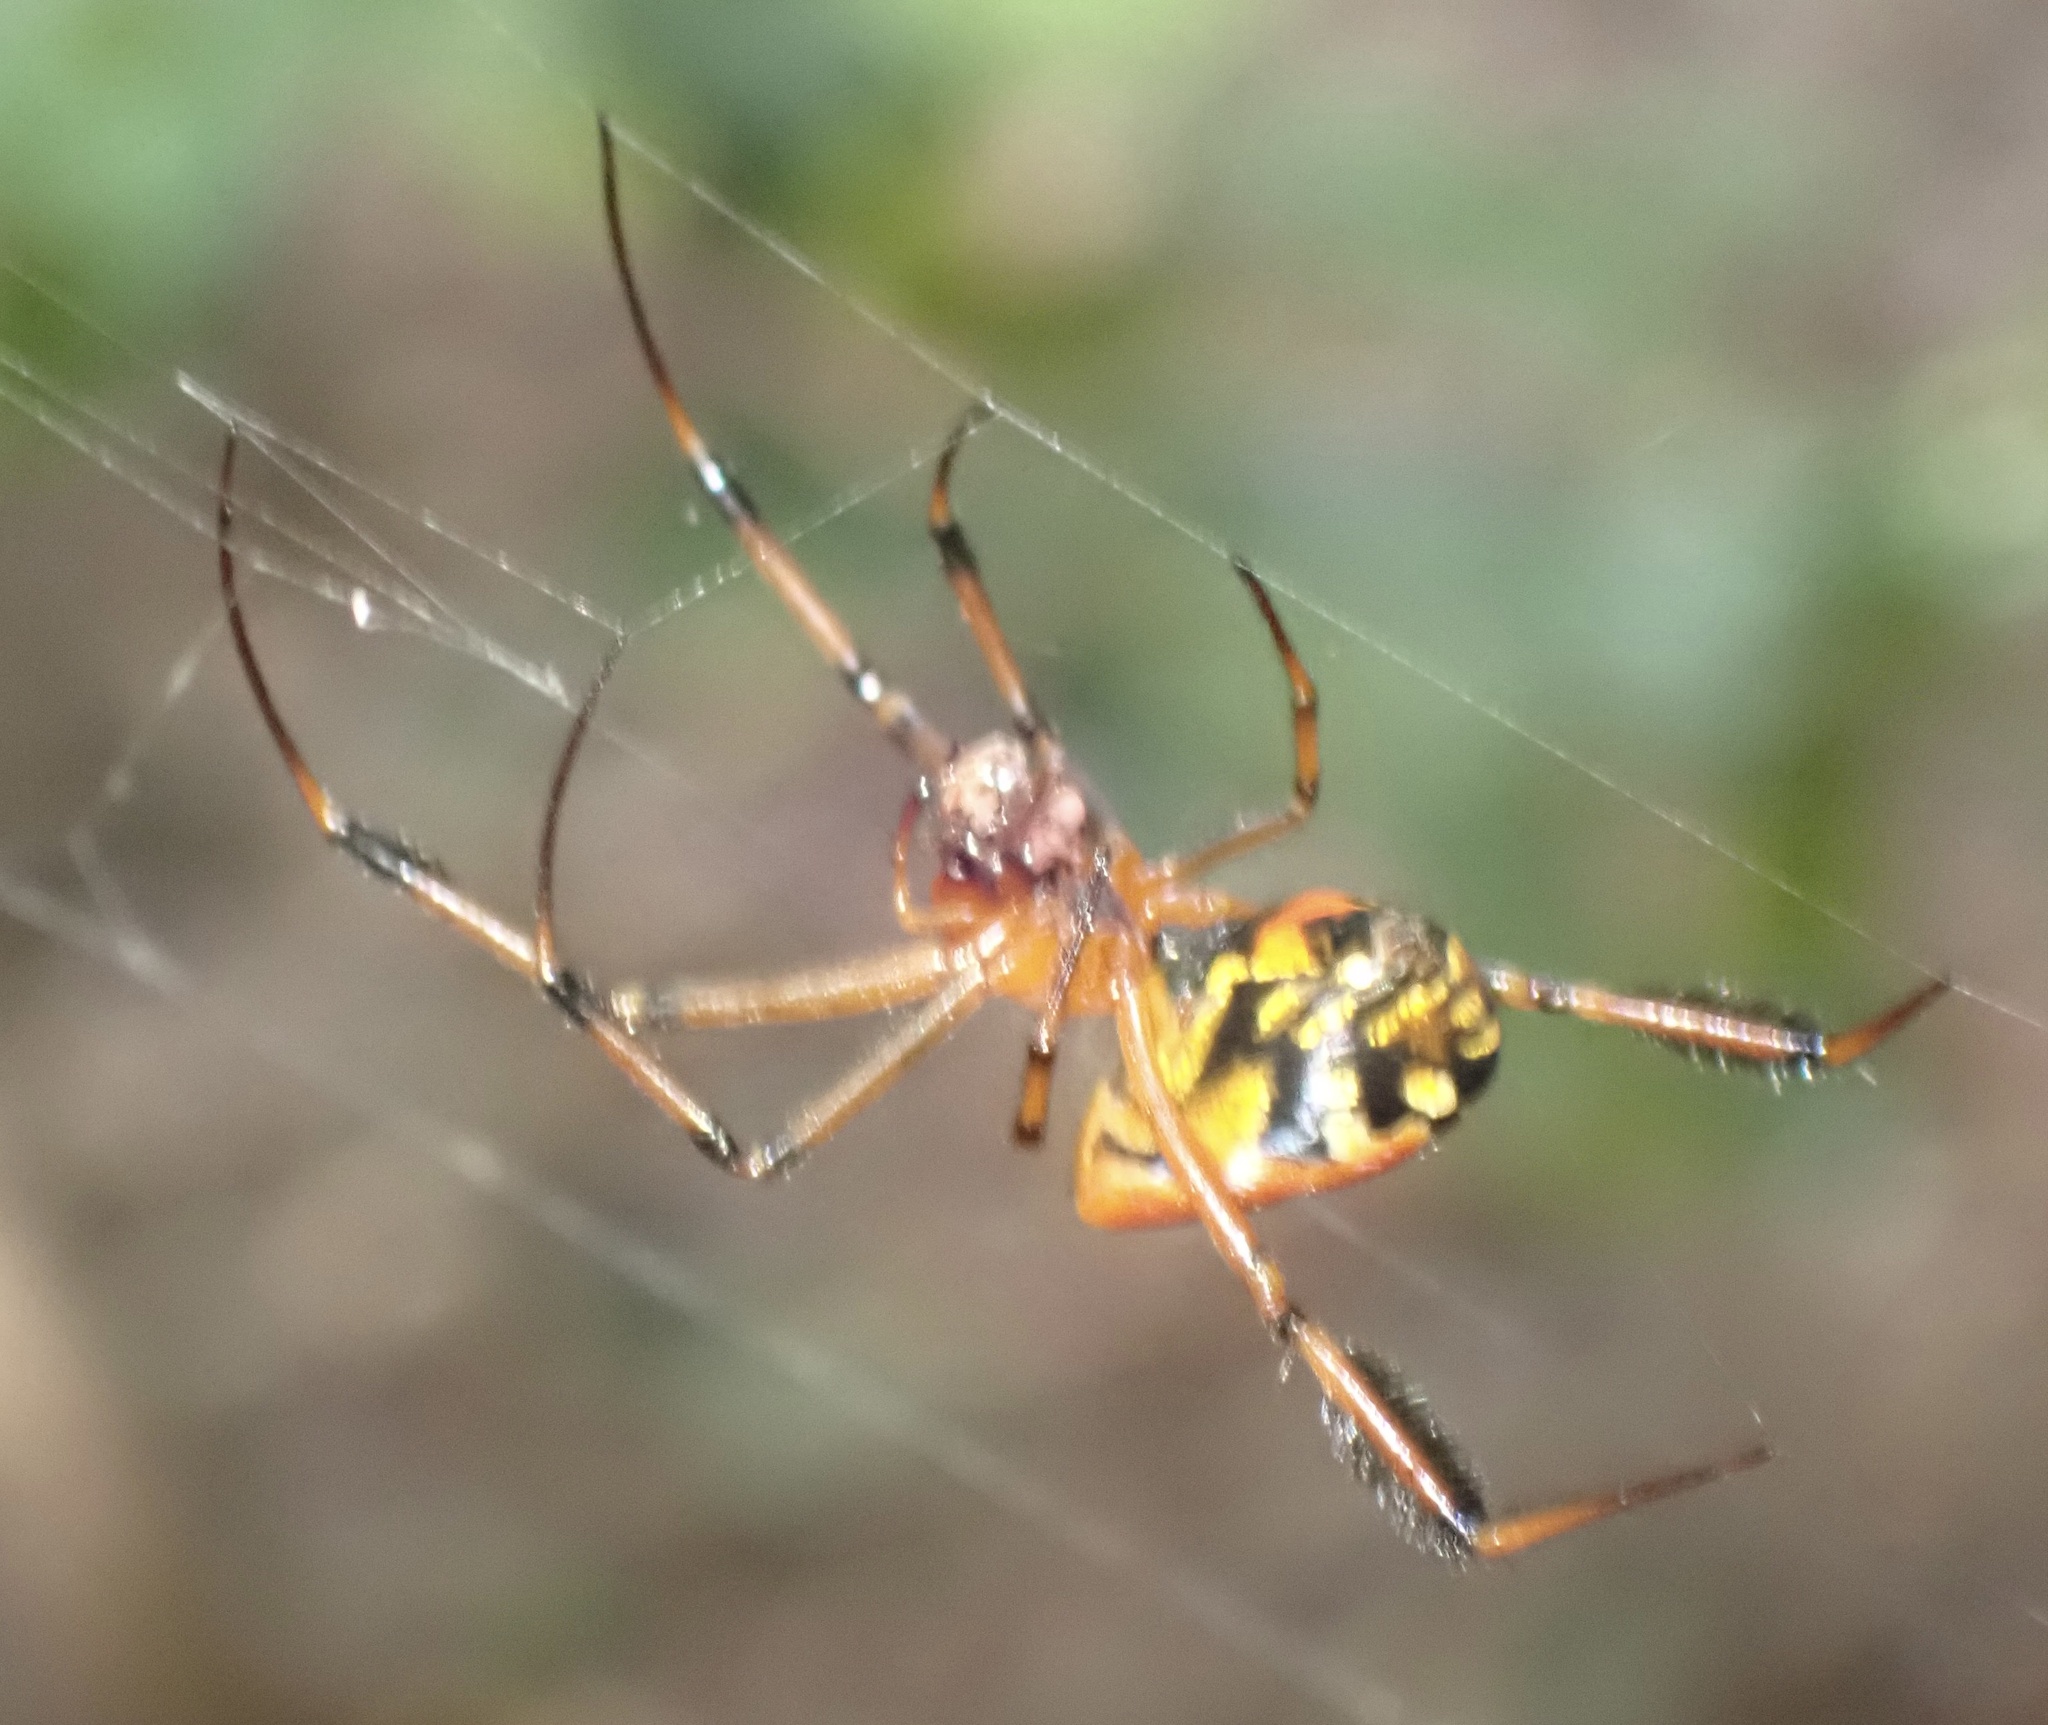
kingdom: Animalia
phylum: Arthropoda
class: Arachnida
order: Araneae
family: Tetragnathidae
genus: Leucauge
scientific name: Leucauge grata
